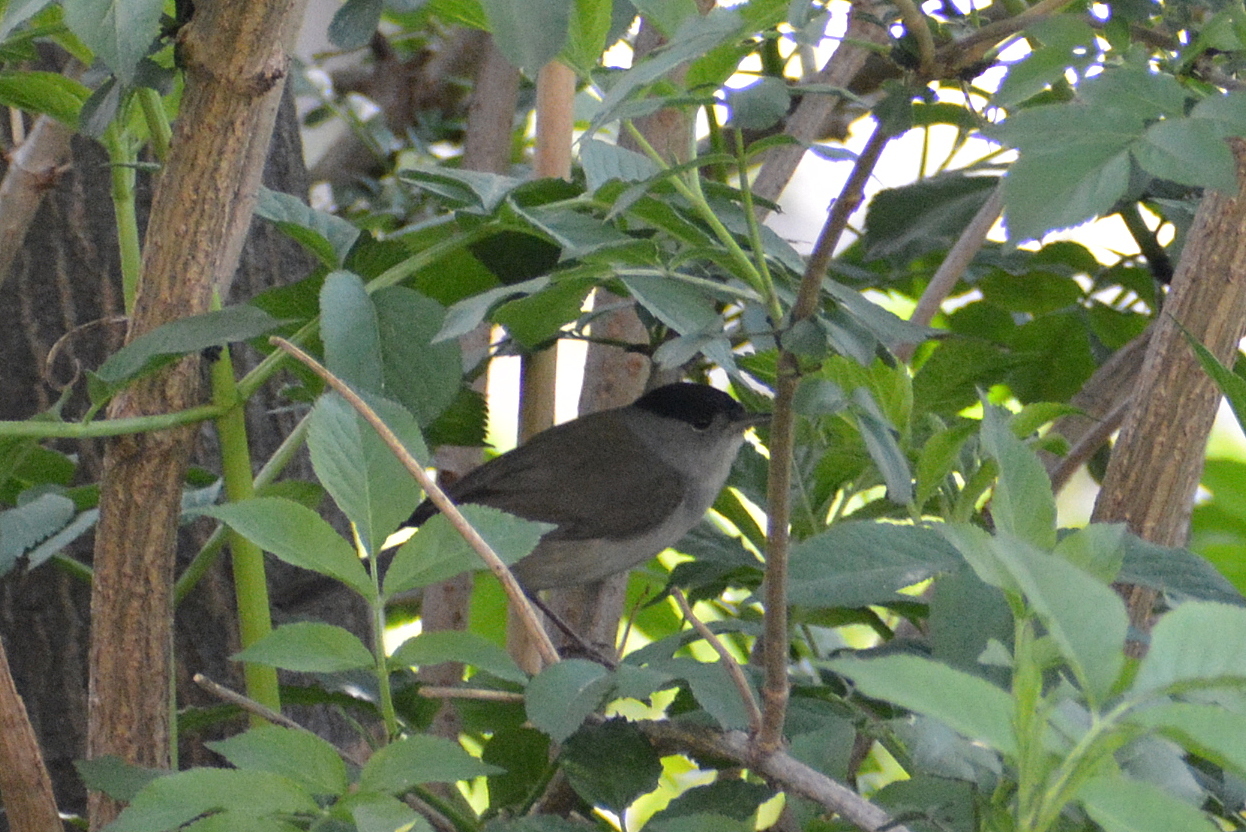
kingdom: Animalia
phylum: Chordata
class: Aves
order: Passeriformes
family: Sylviidae
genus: Sylvia
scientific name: Sylvia atricapilla
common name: Eurasian blackcap
